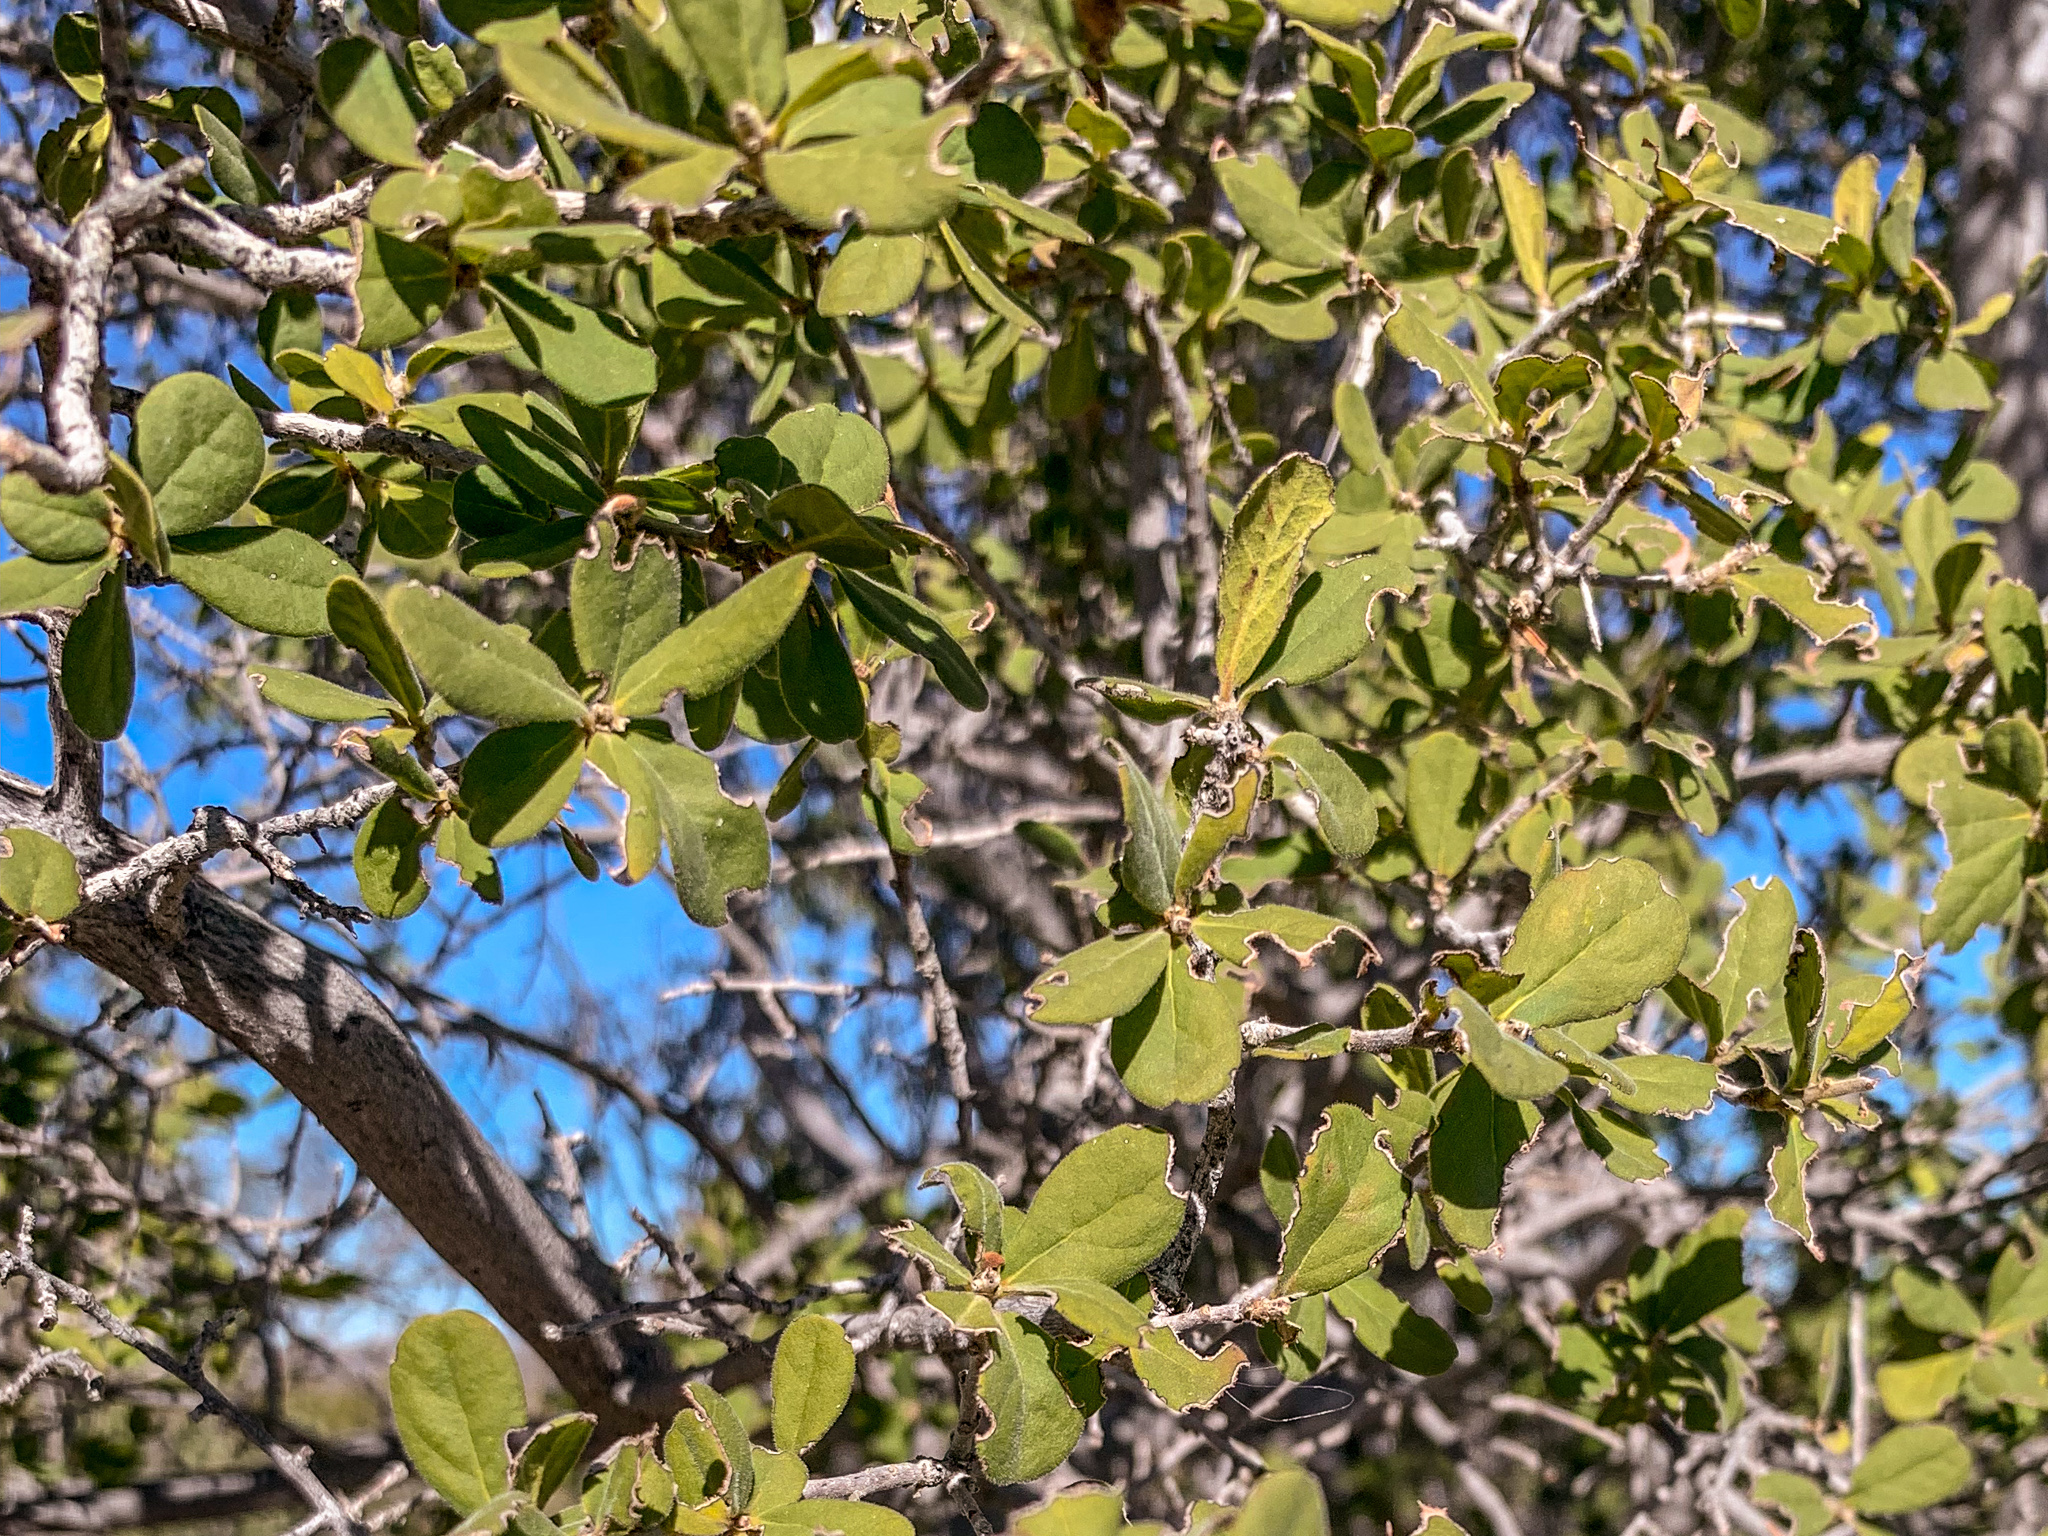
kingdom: Plantae
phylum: Tracheophyta
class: Magnoliopsida
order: Ericales
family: Ebenaceae
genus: Diospyros
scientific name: Diospyros texana
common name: Texas persimmon
